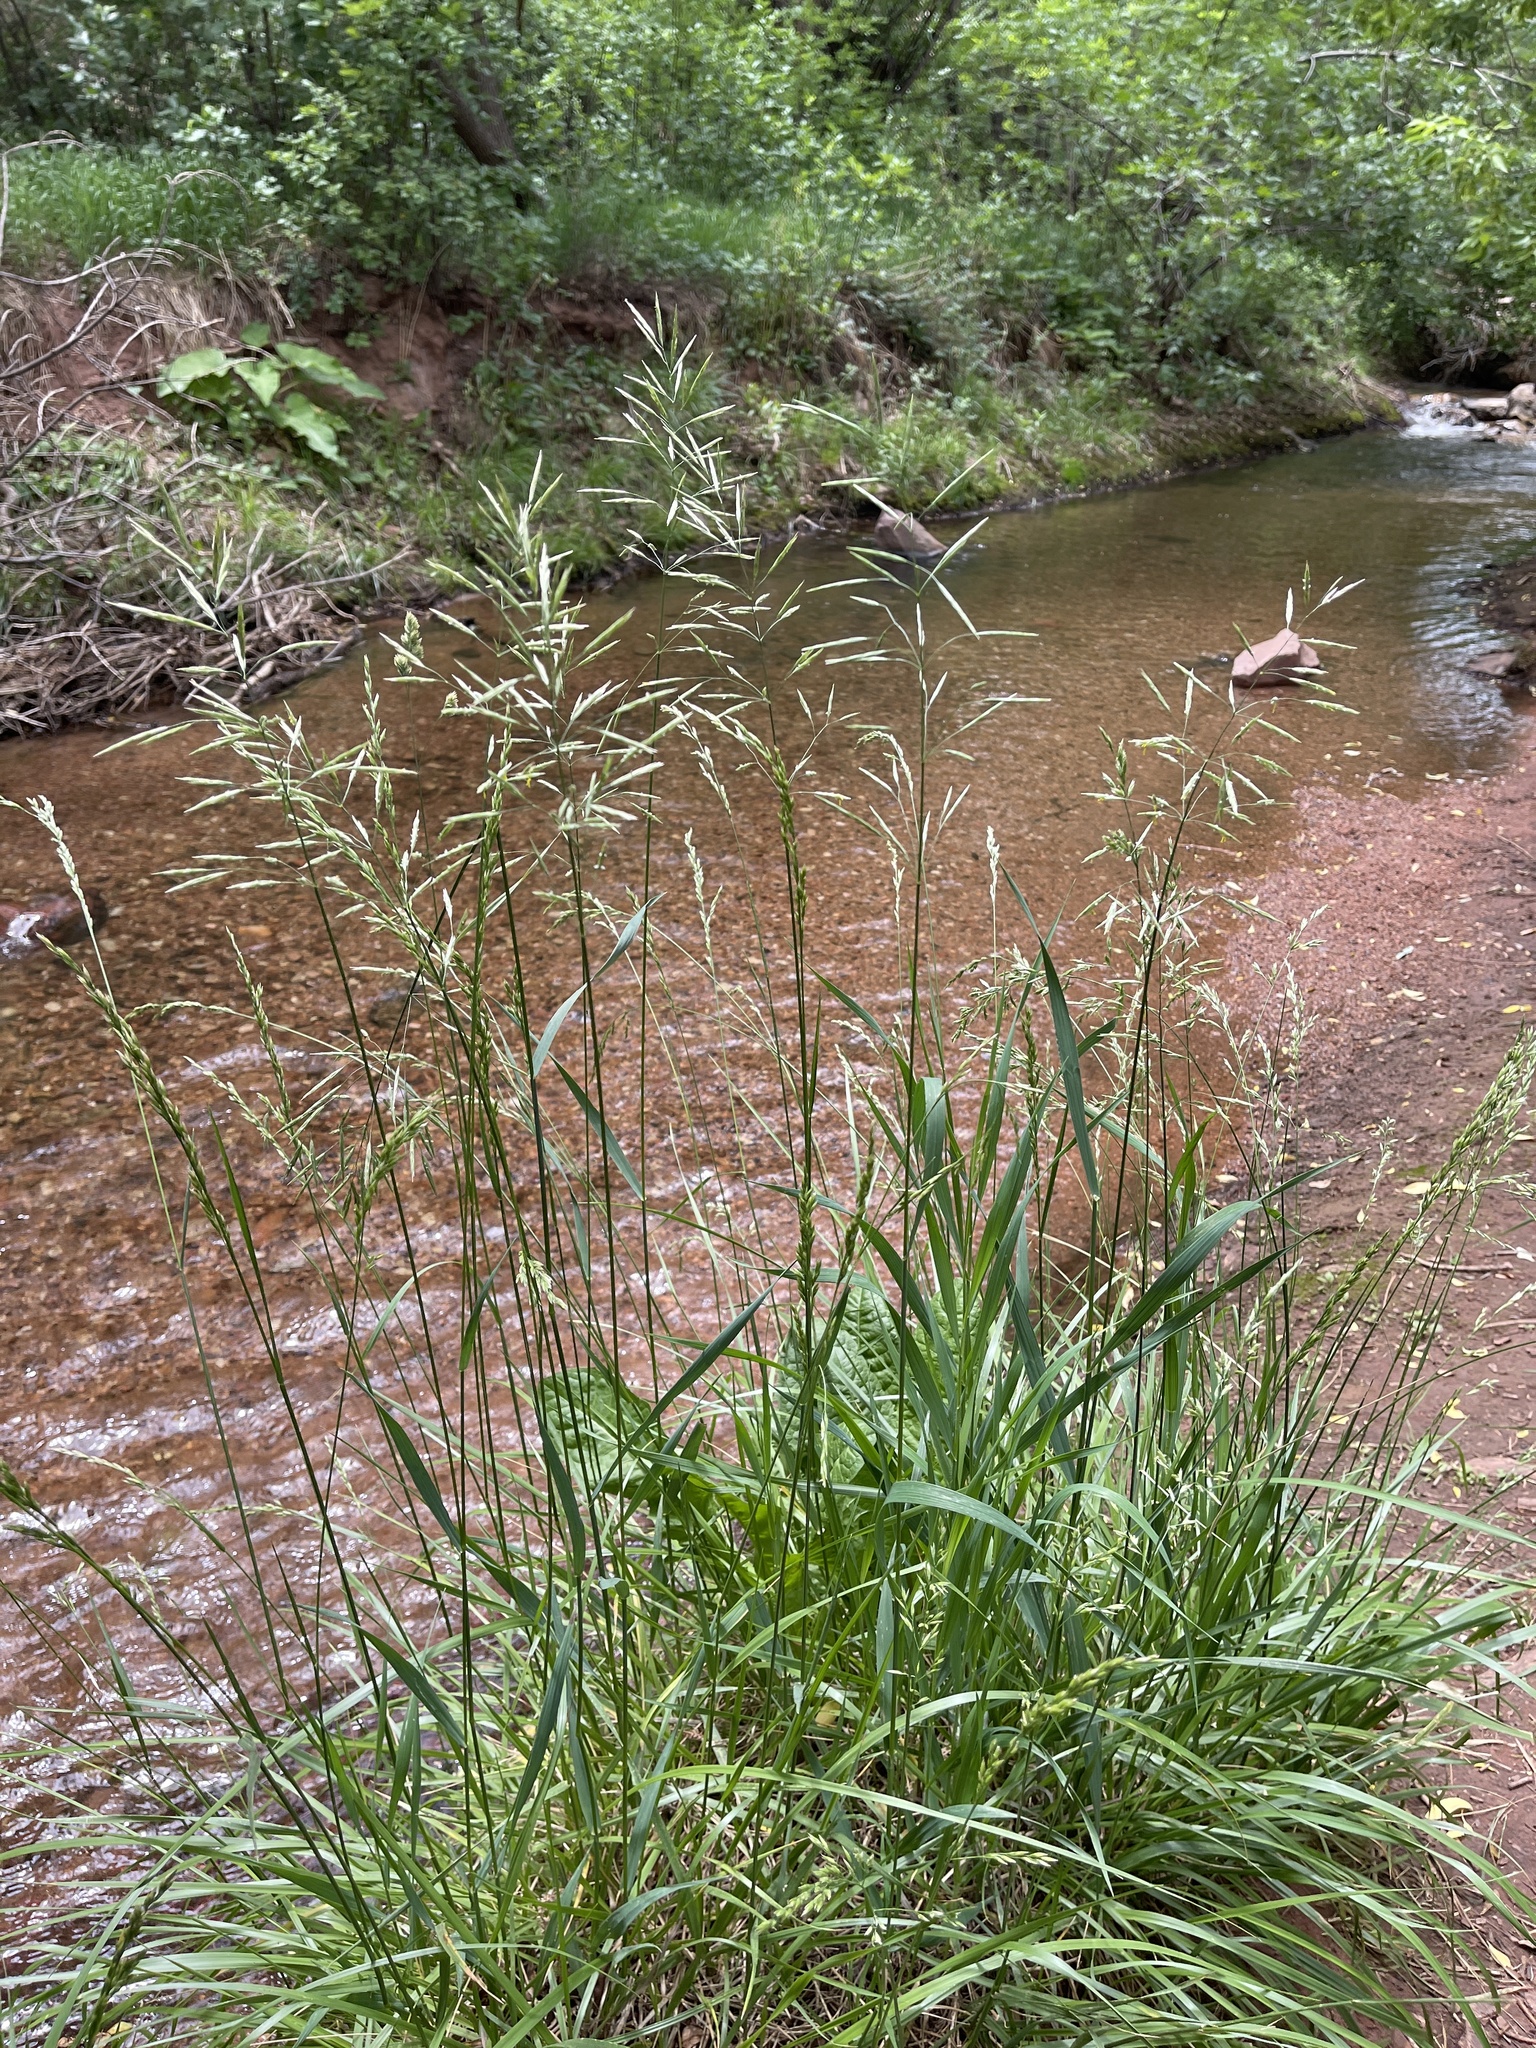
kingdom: Plantae
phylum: Tracheophyta
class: Liliopsida
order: Poales
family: Poaceae
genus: Bromus
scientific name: Bromus inermis
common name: Smooth brome
